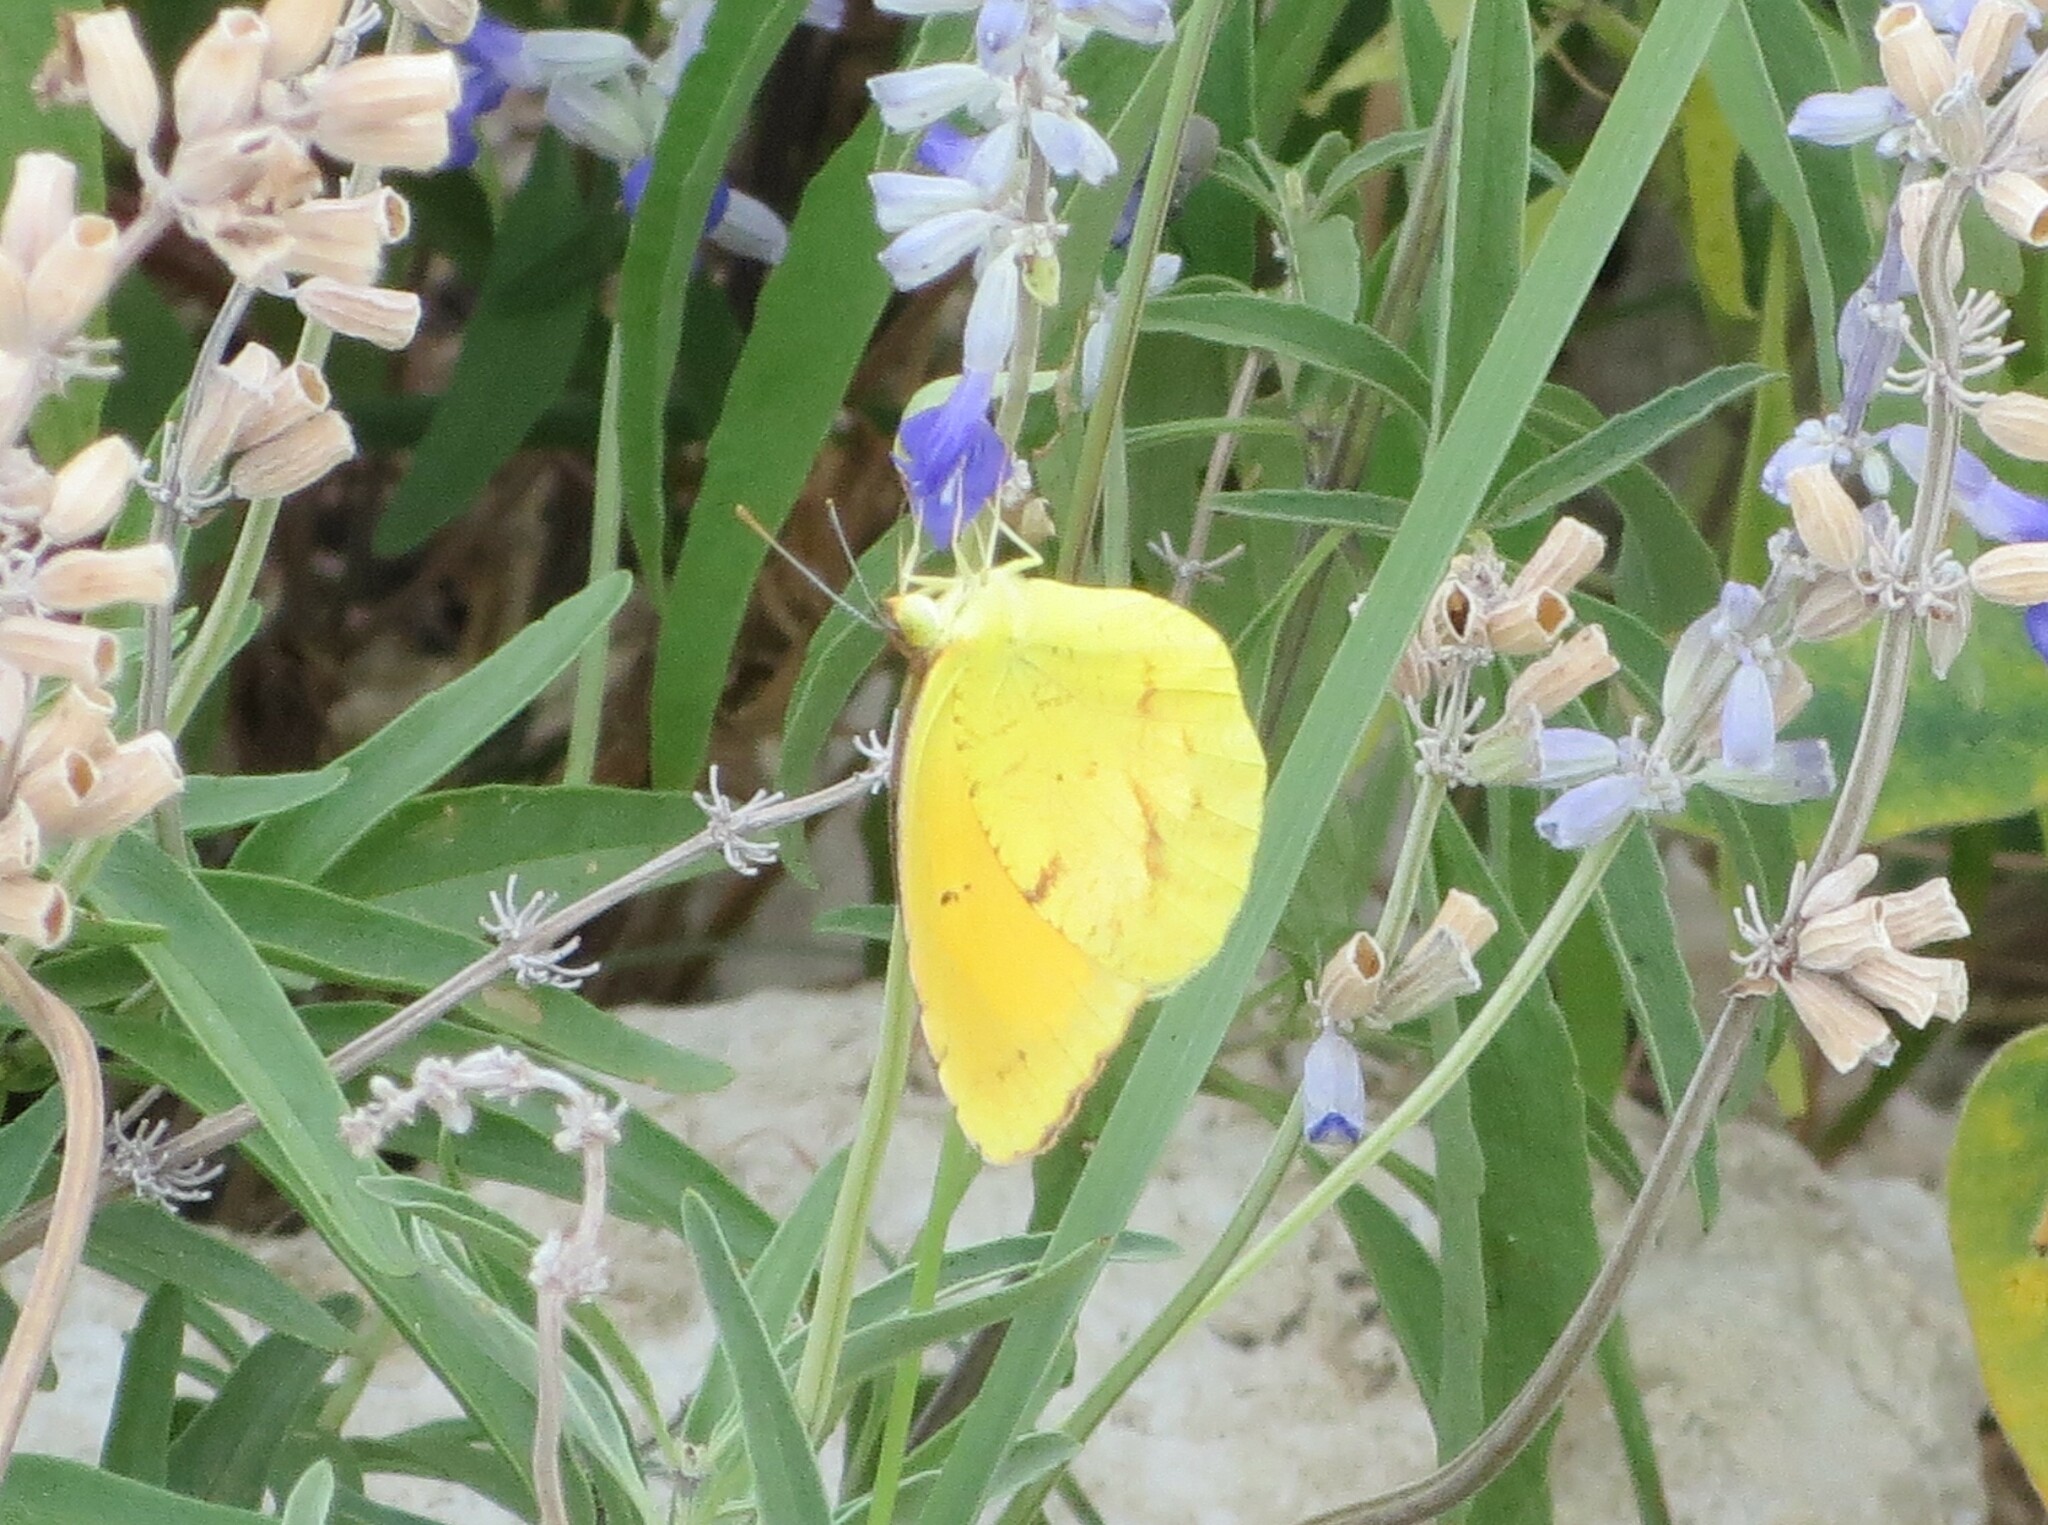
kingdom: Animalia
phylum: Arthropoda
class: Insecta
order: Lepidoptera
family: Pieridae
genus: Abaeis
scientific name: Abaeis nicippe
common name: Sleepy orange
